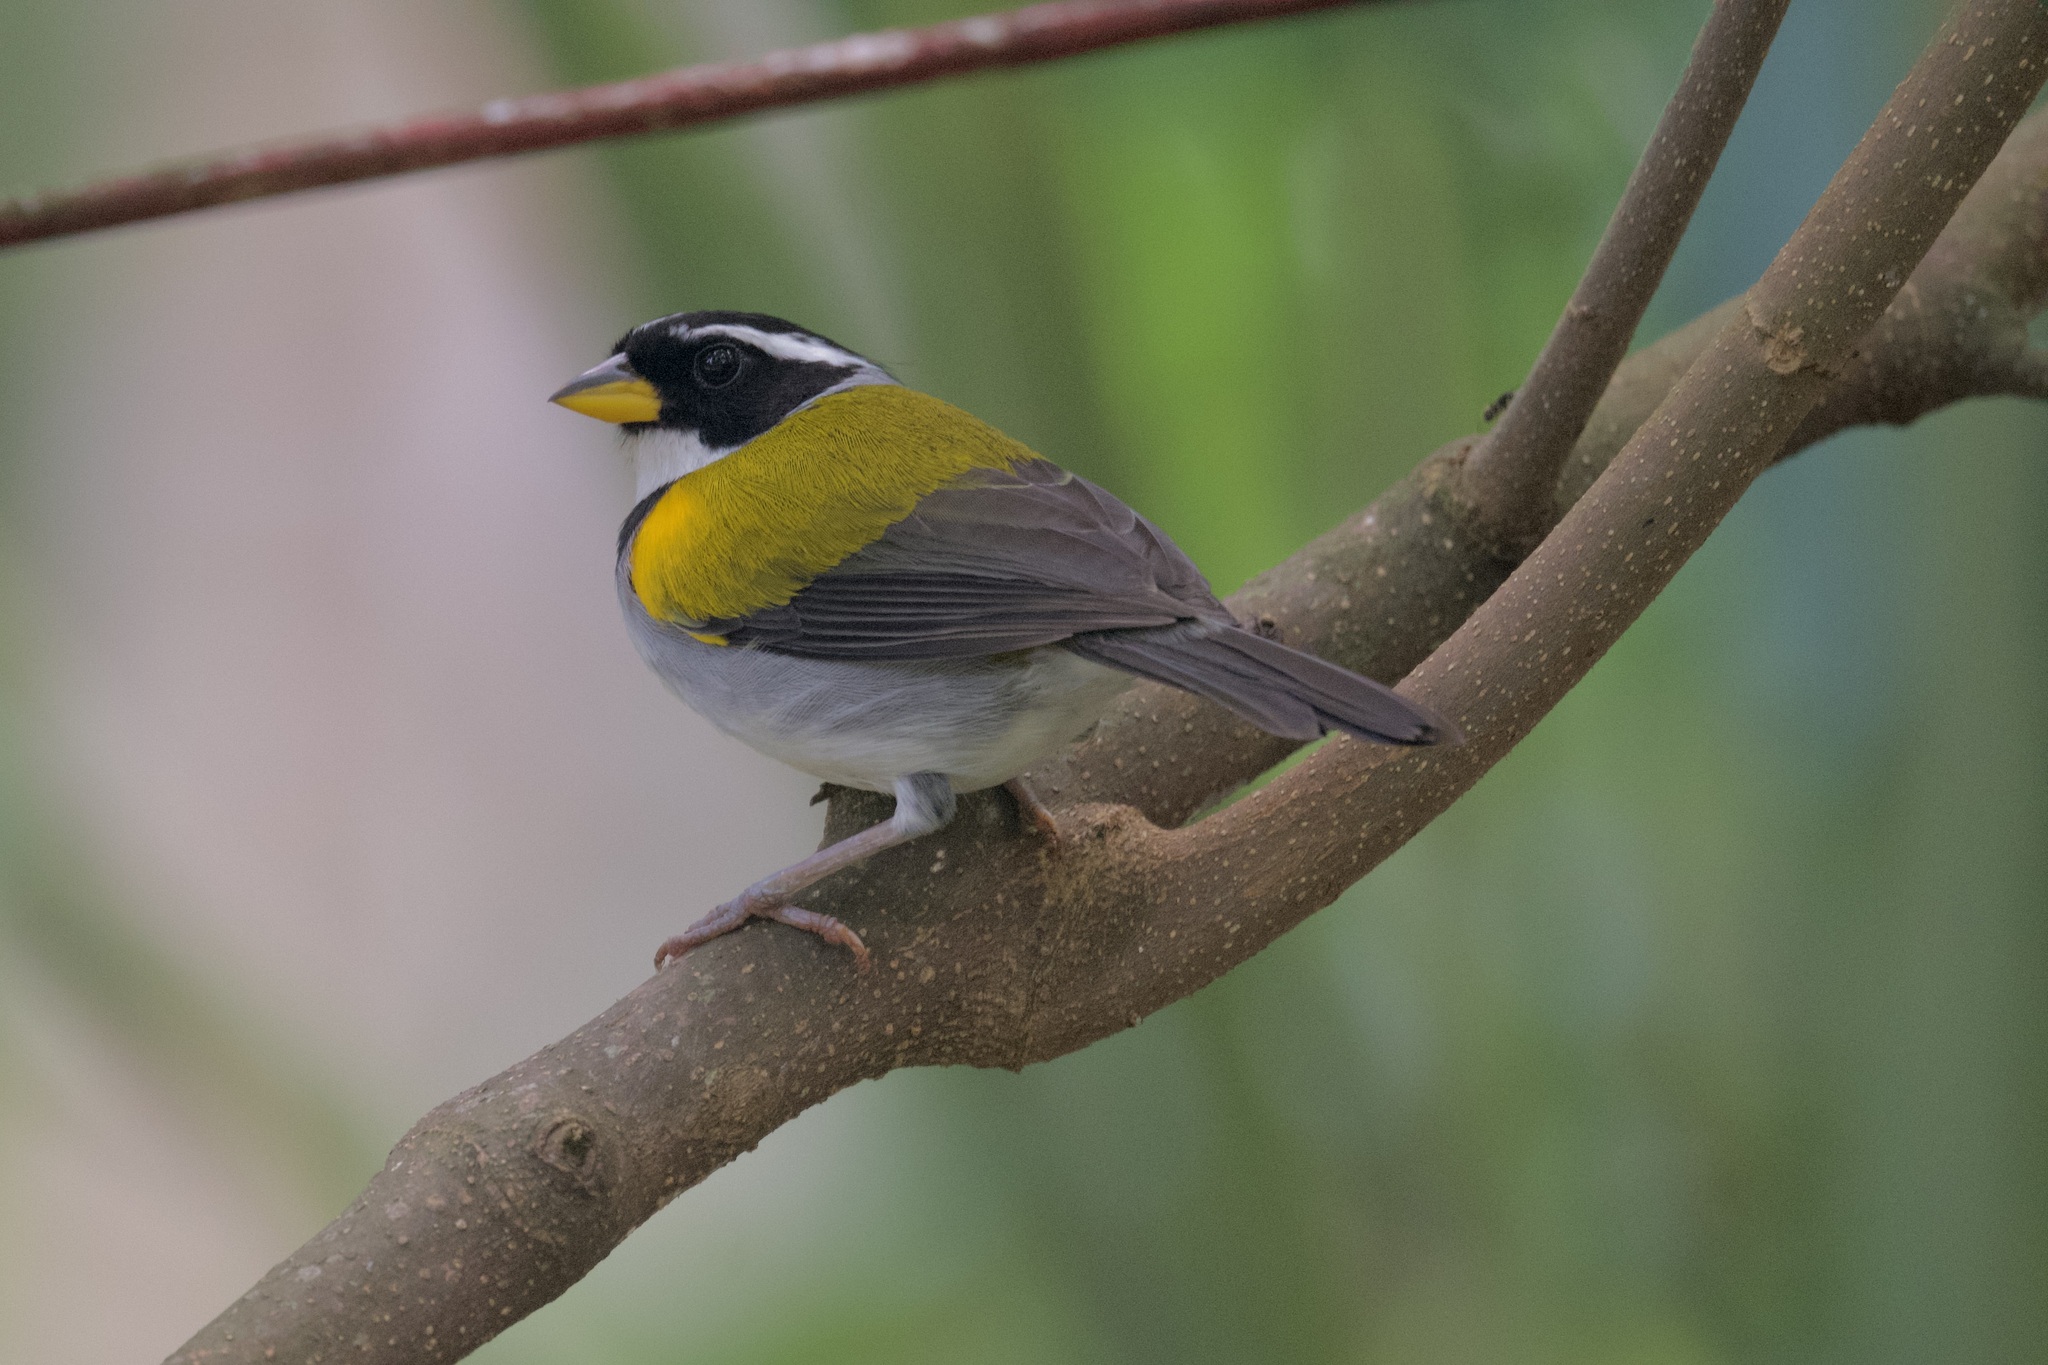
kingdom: Animalia
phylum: Chordata
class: Aves
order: Passeriformes
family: Passerellidae
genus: Arremon
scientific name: Arremon taciturnus
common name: Pectoral sparrow
